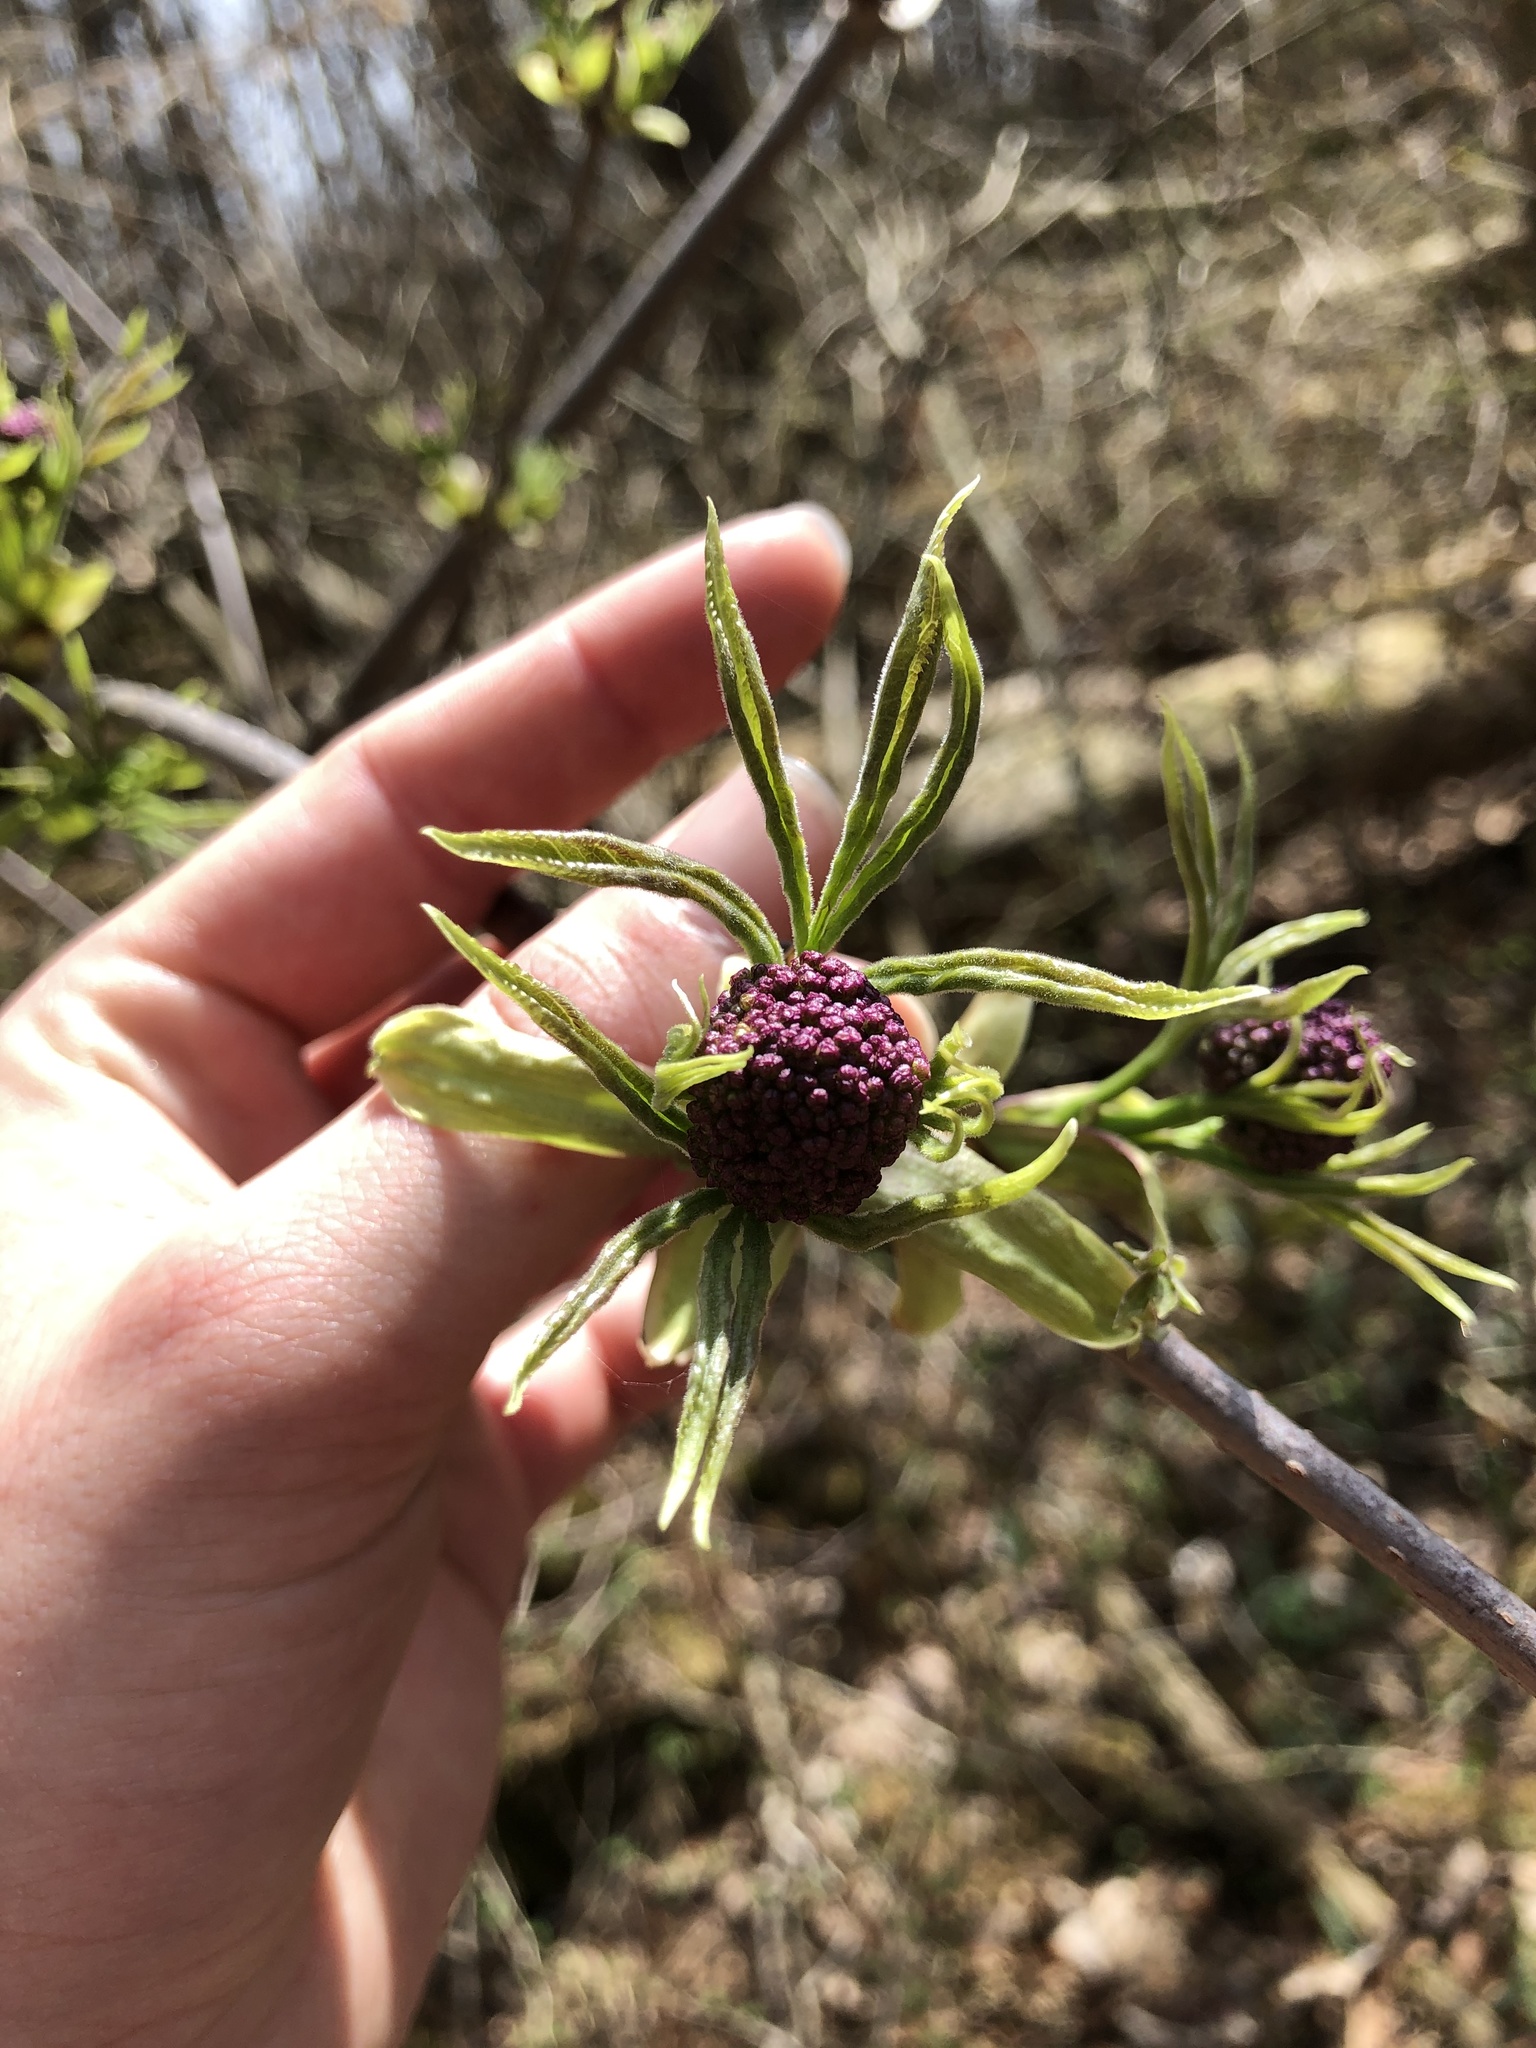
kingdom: Plantae
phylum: Tracheophyta
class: Magnoliopsida
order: Dipsacales
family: Viburnaceae
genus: Sambucus
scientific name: Sambucus racemosa
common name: Red-berried elder
